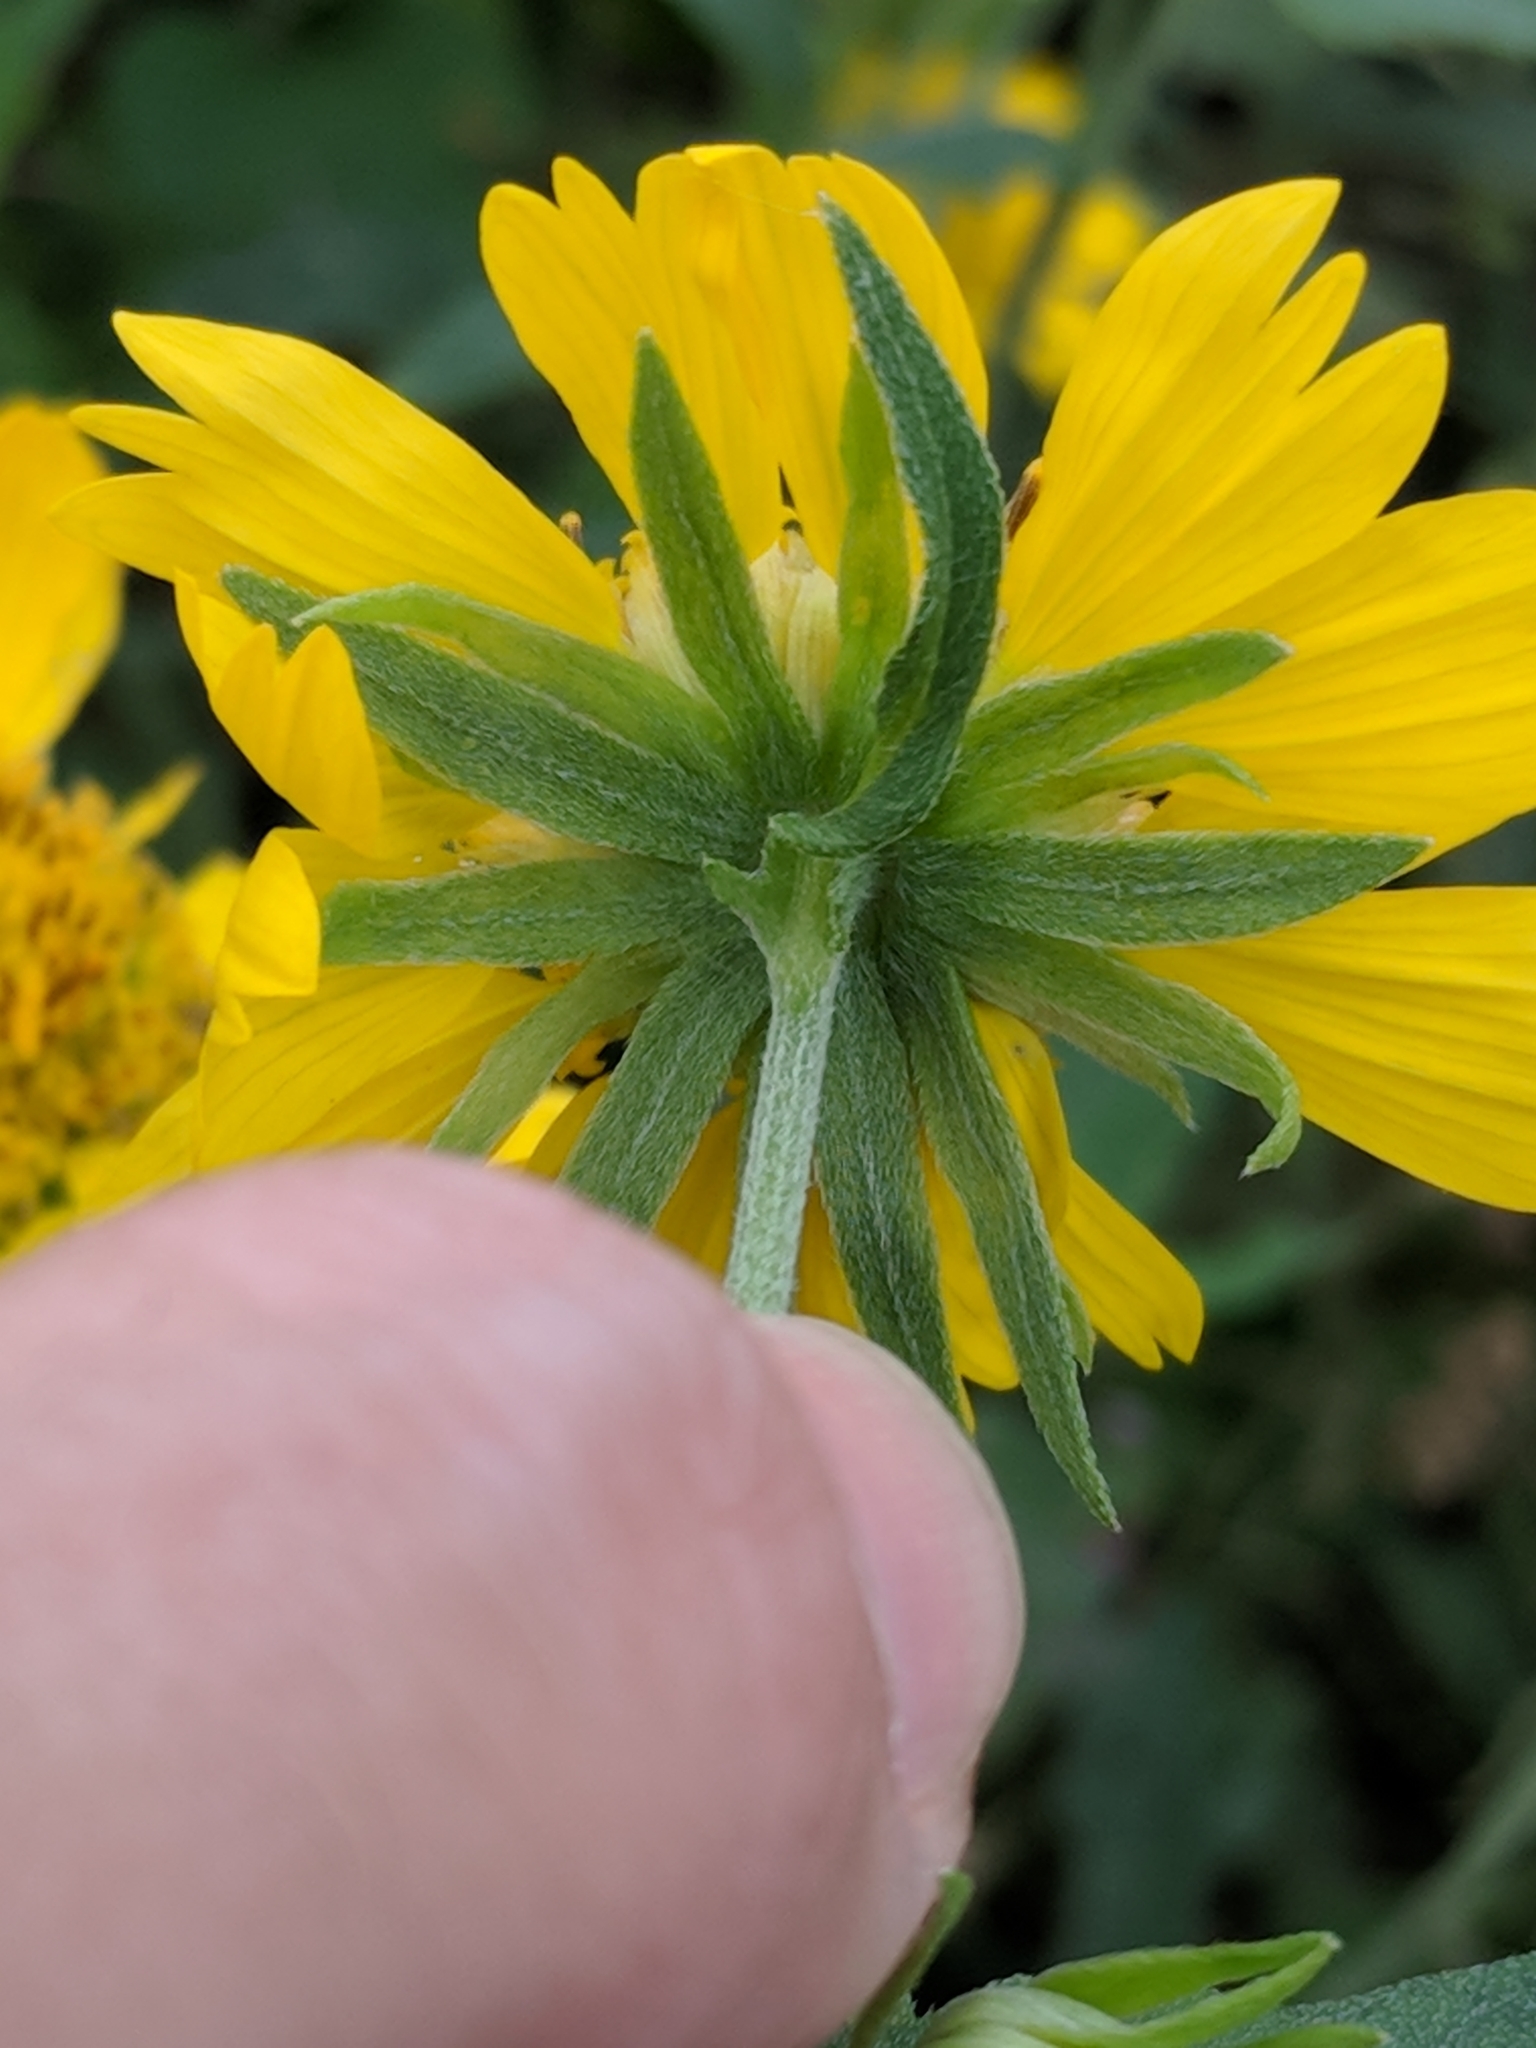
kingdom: Plantae
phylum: Tracheophyta
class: Magnoliopsida
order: Asterales
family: Asteraceae
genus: Verbesina
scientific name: Verbesina encelioides
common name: Golden crownbeard
